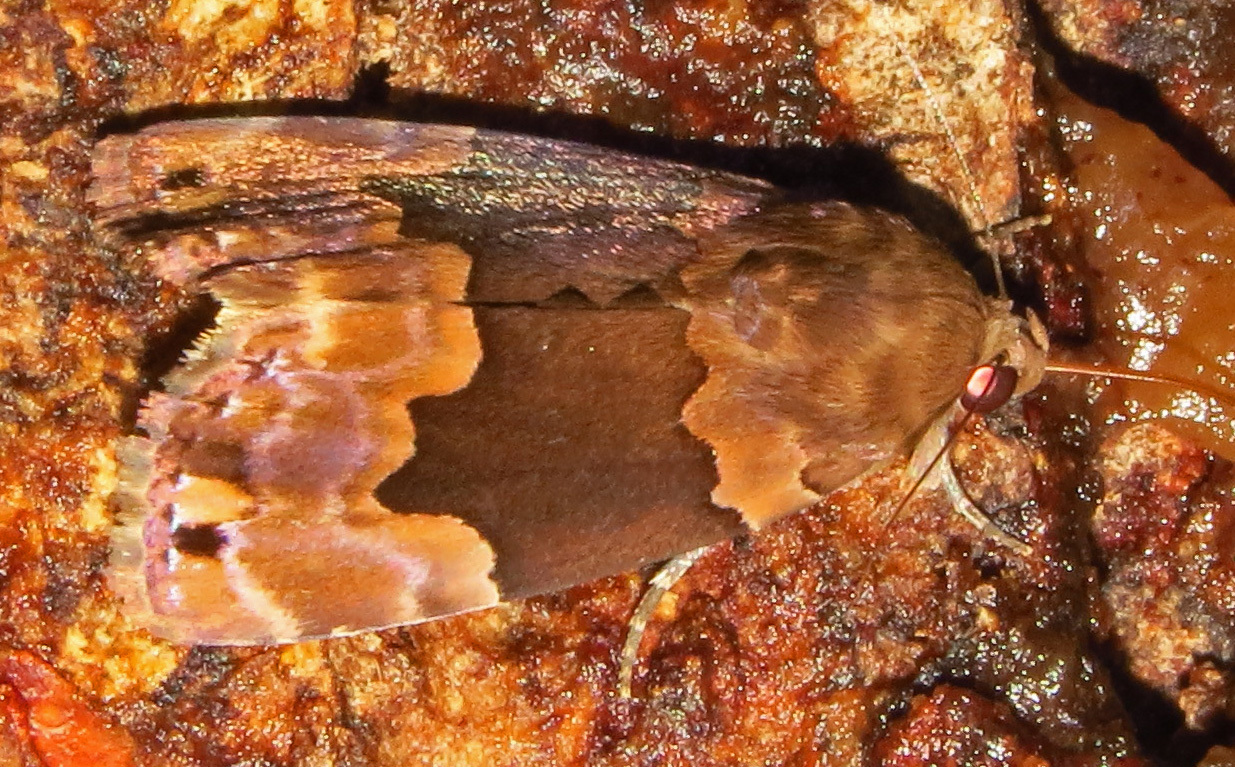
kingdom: Animalia
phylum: Arthropoda
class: Insecta
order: Lepidoptera
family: Erebidae
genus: Dinumma
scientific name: Dinumma deponens
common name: Purplish moth
